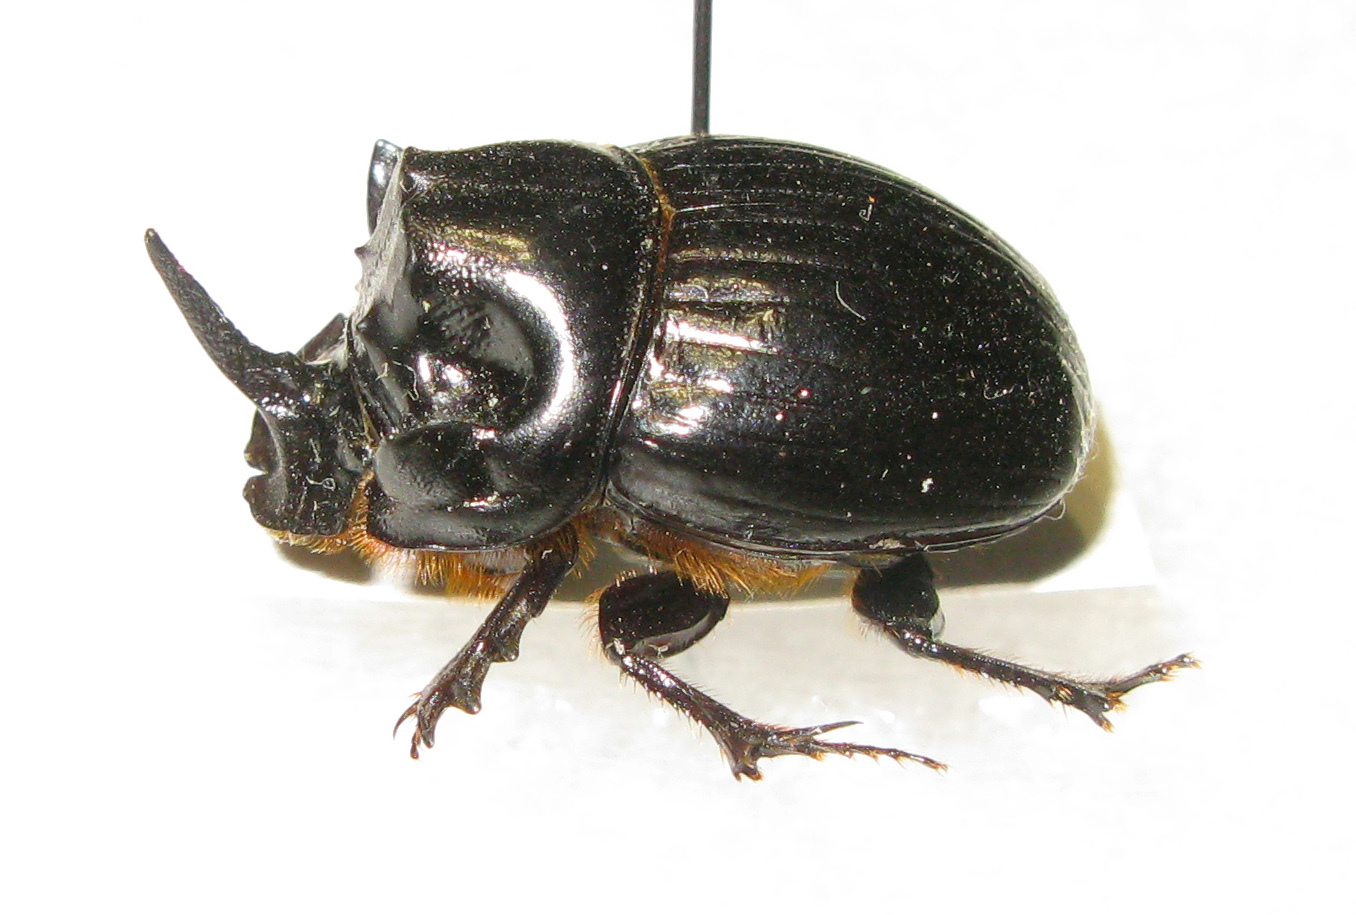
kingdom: Animalia
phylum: Arthropoda
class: Insecta
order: Coleoptera
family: Scarabaeidae
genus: Copris
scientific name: Copris lunaris
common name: Horned dung beetle
